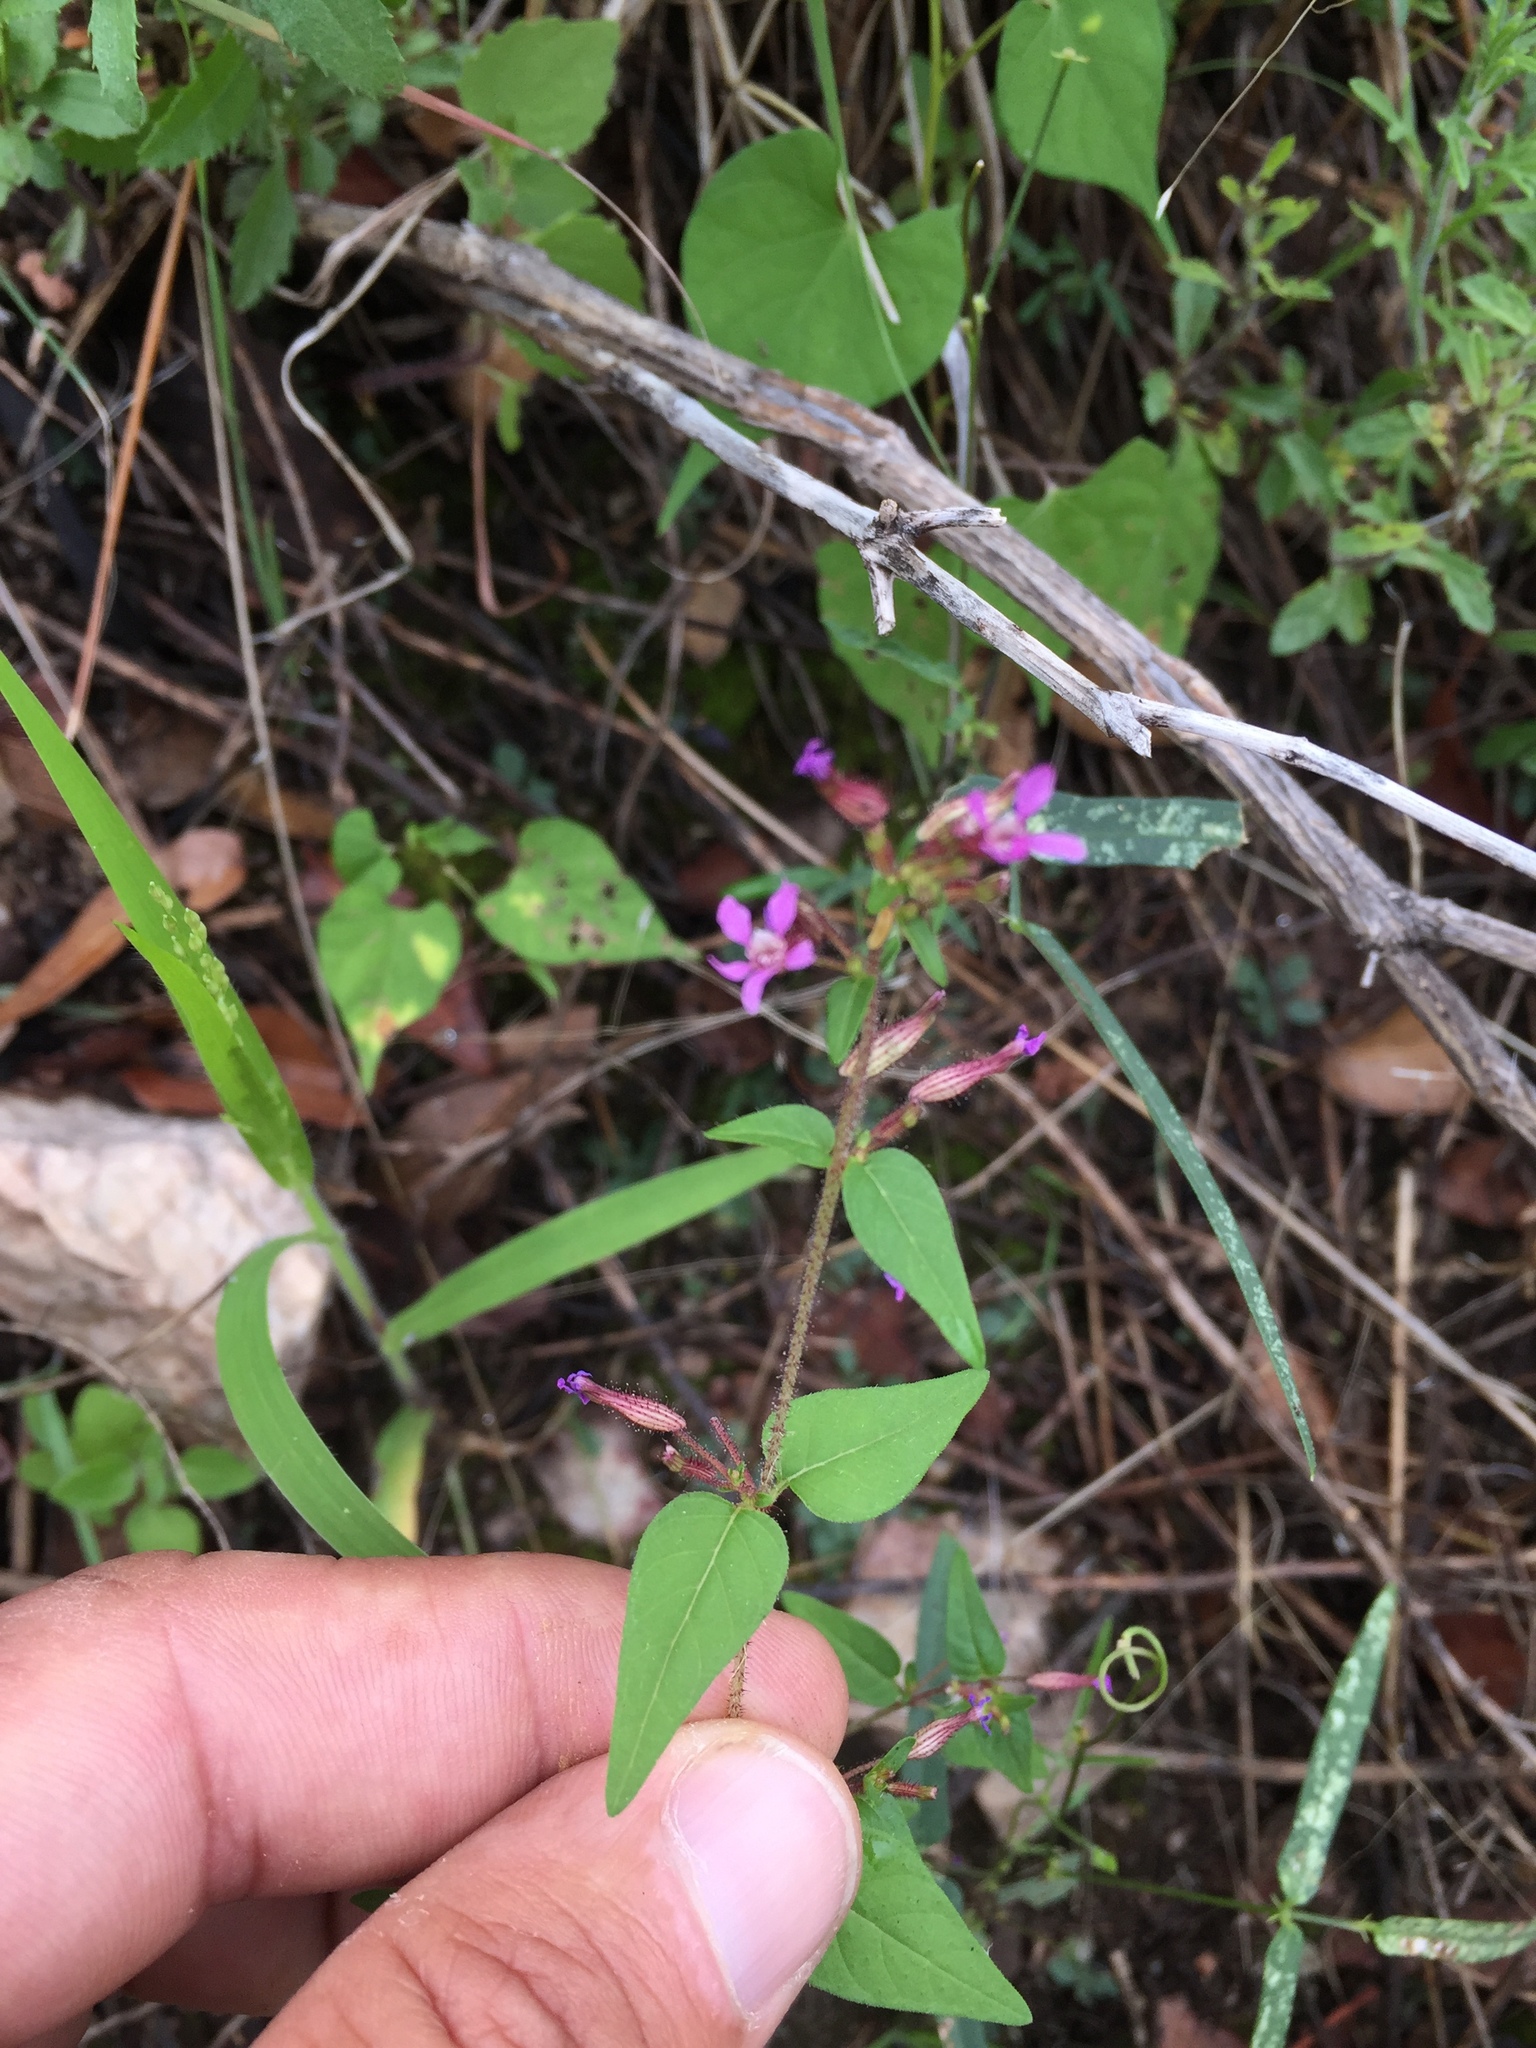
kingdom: Plantae
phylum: Tracheophyta
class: Magnoliopsida
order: Myrtales
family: Lythraceae
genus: Cuphea
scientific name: Cuphea wrightii
